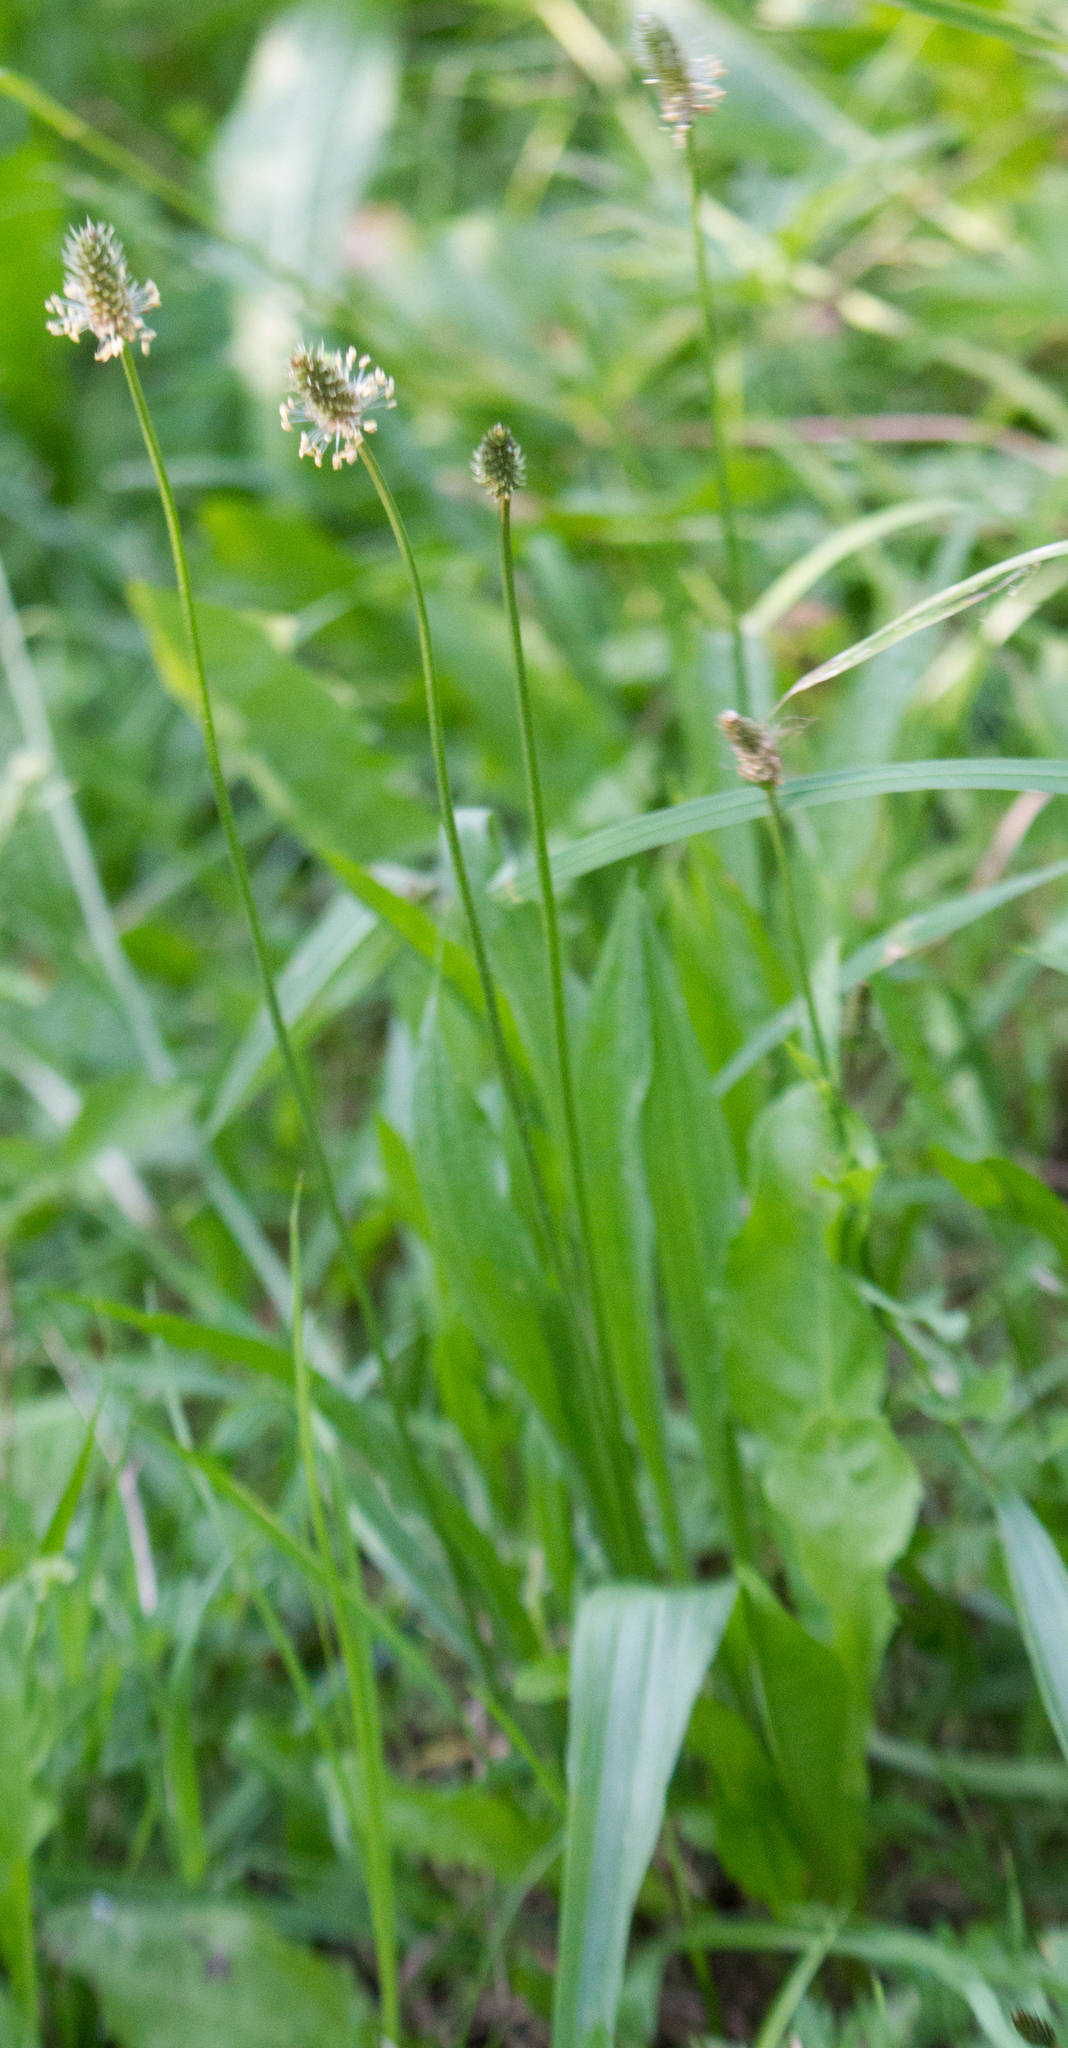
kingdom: Plantae
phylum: Tracheophyta
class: Magnoliopsida
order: Lamiales
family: Plantaginaceae
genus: Plantago
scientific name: Plantago lanceolata
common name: Ribwort plantain
